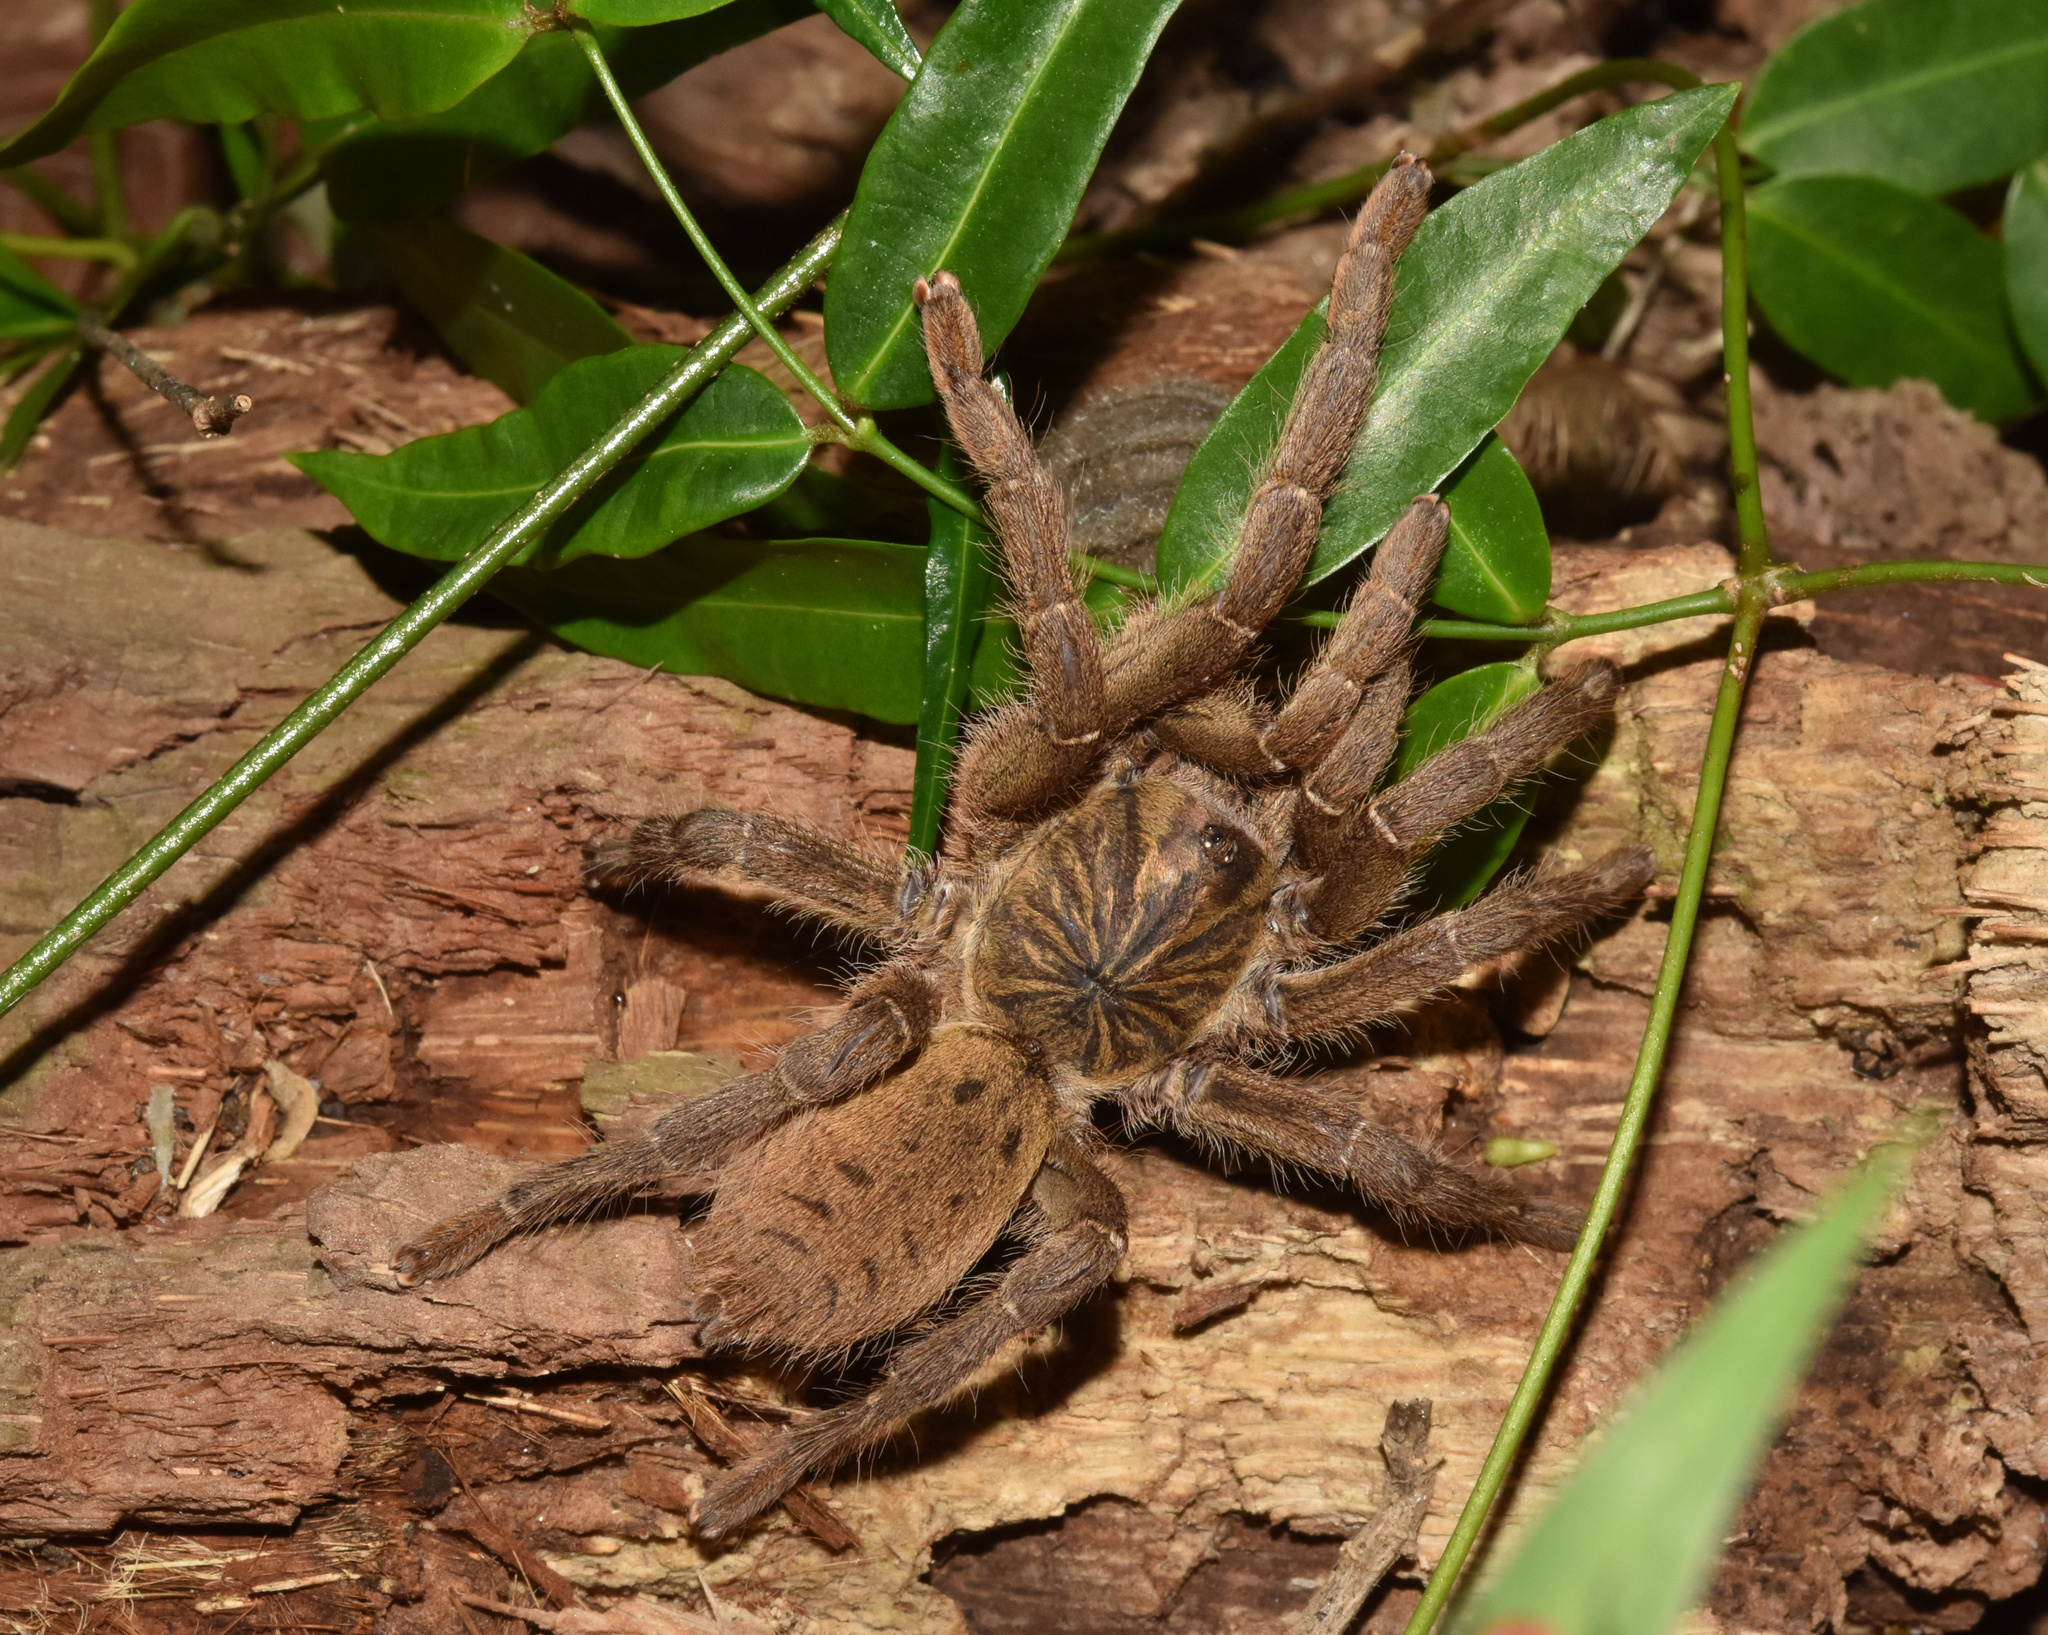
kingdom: Animalia
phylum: Arthropoda
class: Arachnida
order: Araneae
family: Theraphosidae
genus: Harpactira
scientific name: Harpactira curator
